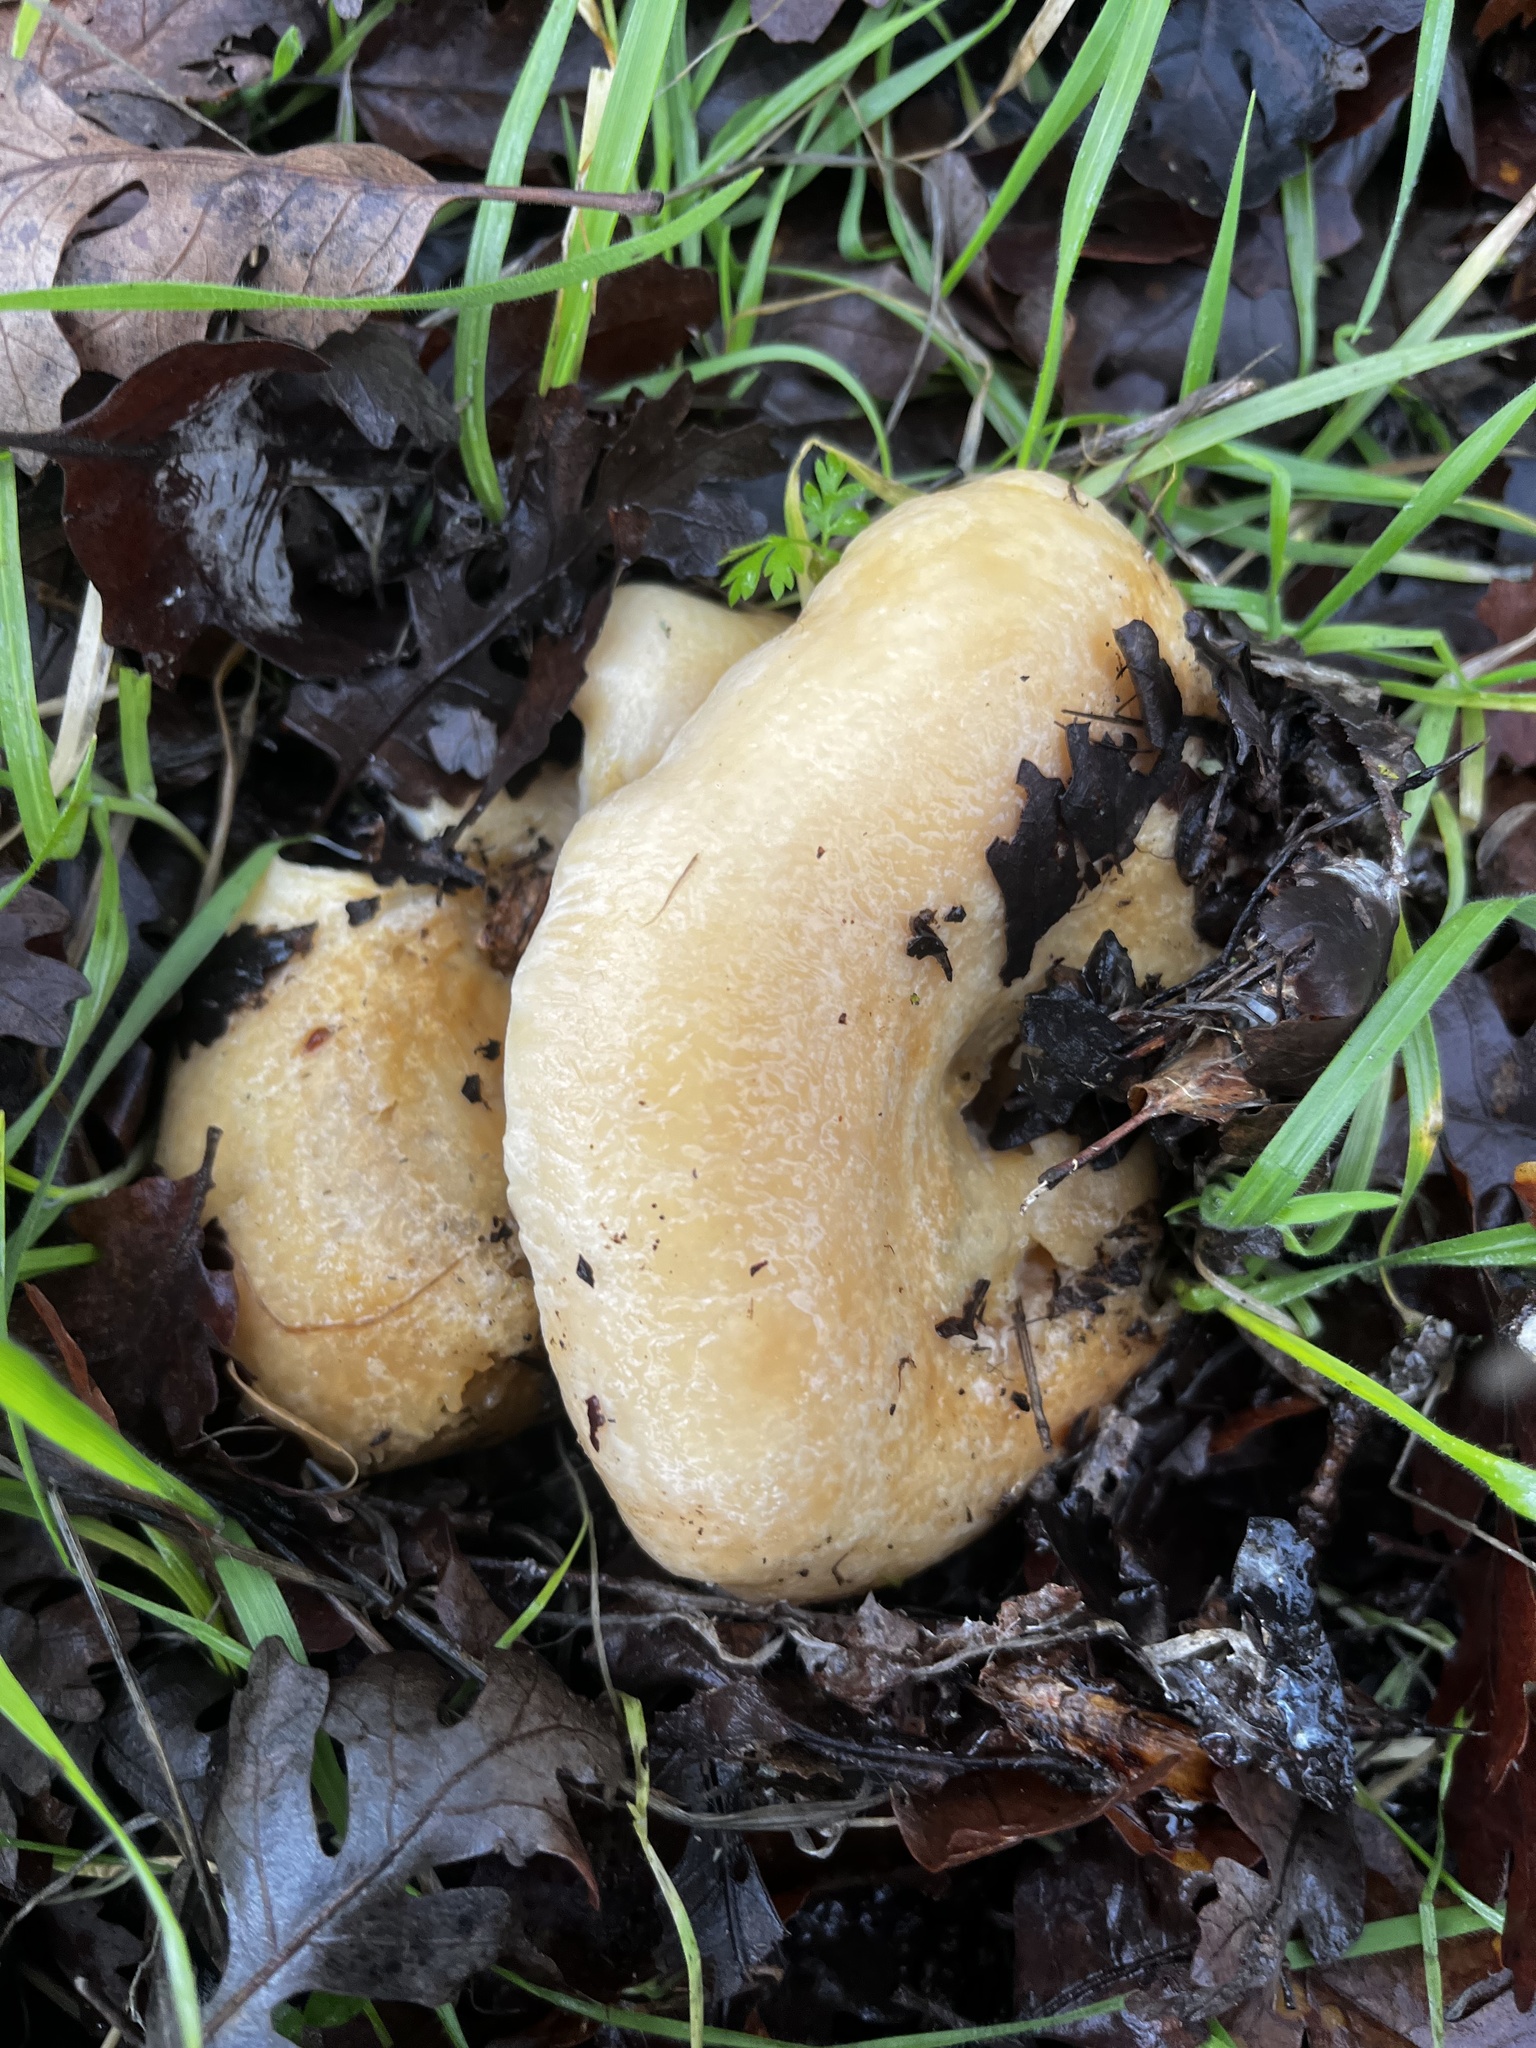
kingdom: Fungi
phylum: Basidiomycota
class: Agaricomycetes
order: Russulales
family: Russulaceae
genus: Lactarius
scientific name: Lactarius alnicola
